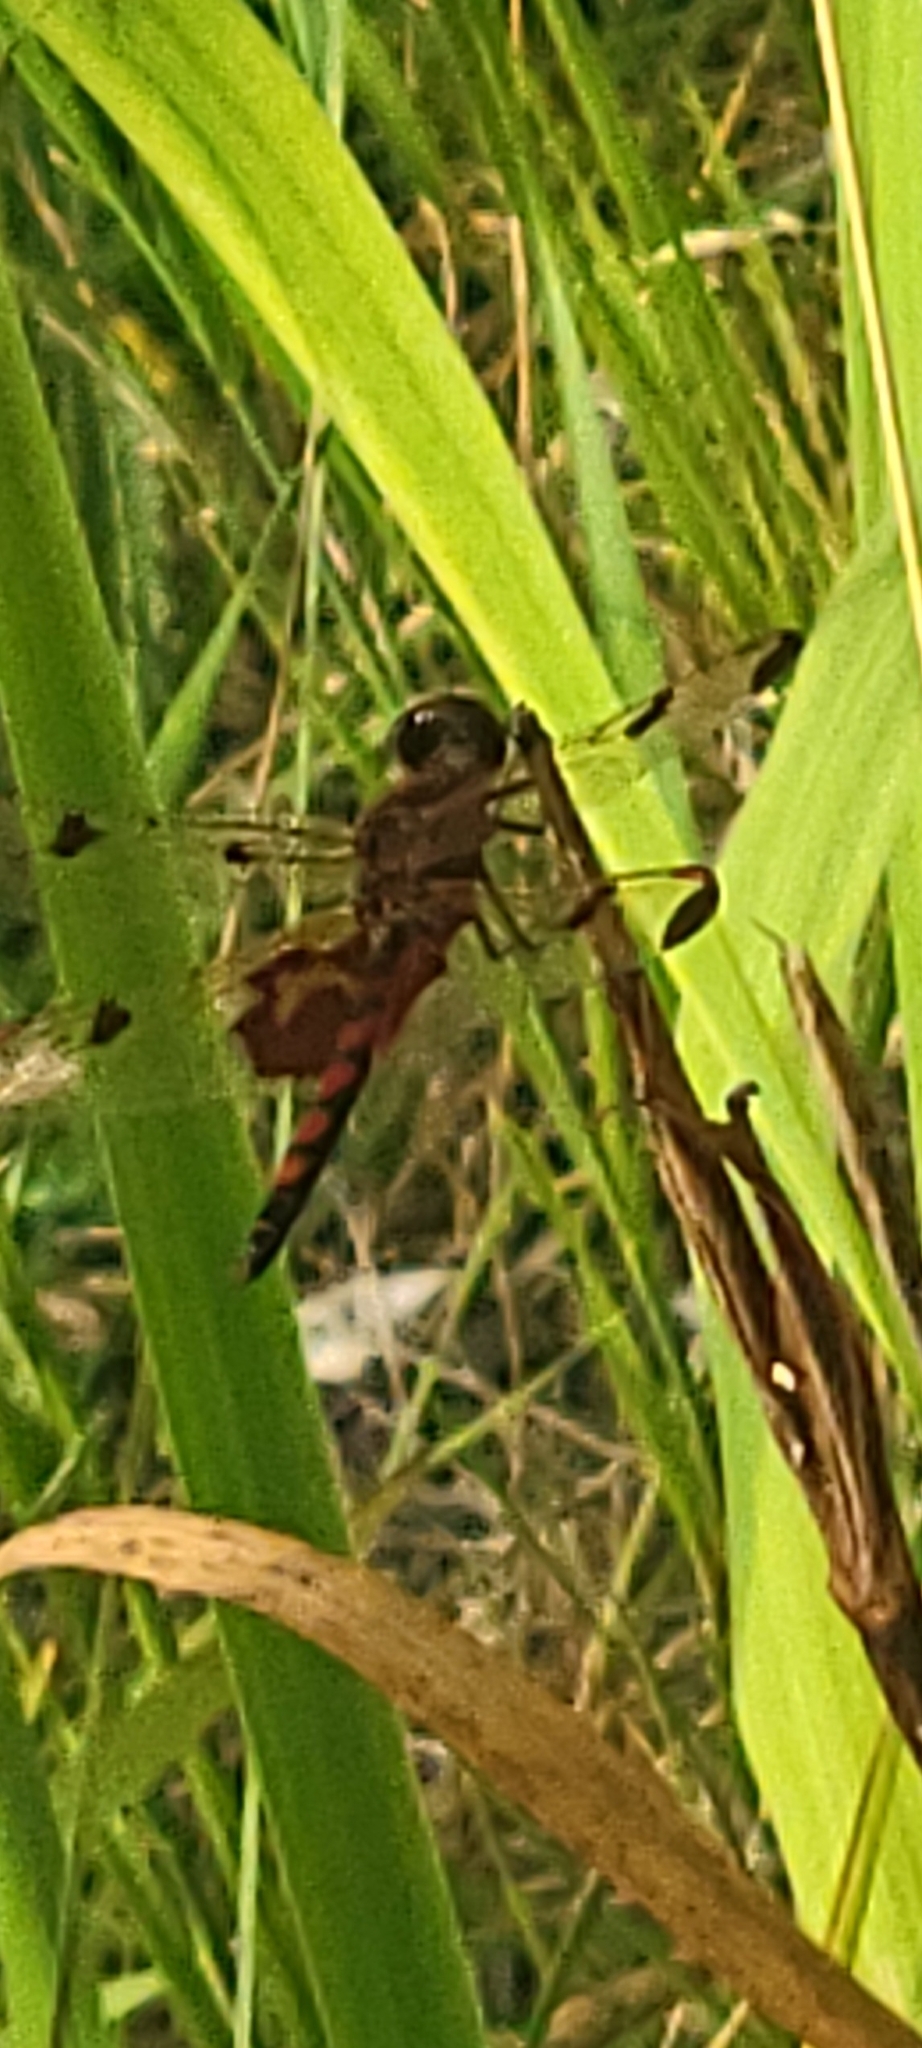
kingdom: Animalia
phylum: Arthropoda
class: Insecta
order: Odonata
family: Libellulidae
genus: Celithemis
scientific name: Celithemis elisa
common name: Calico pennant
